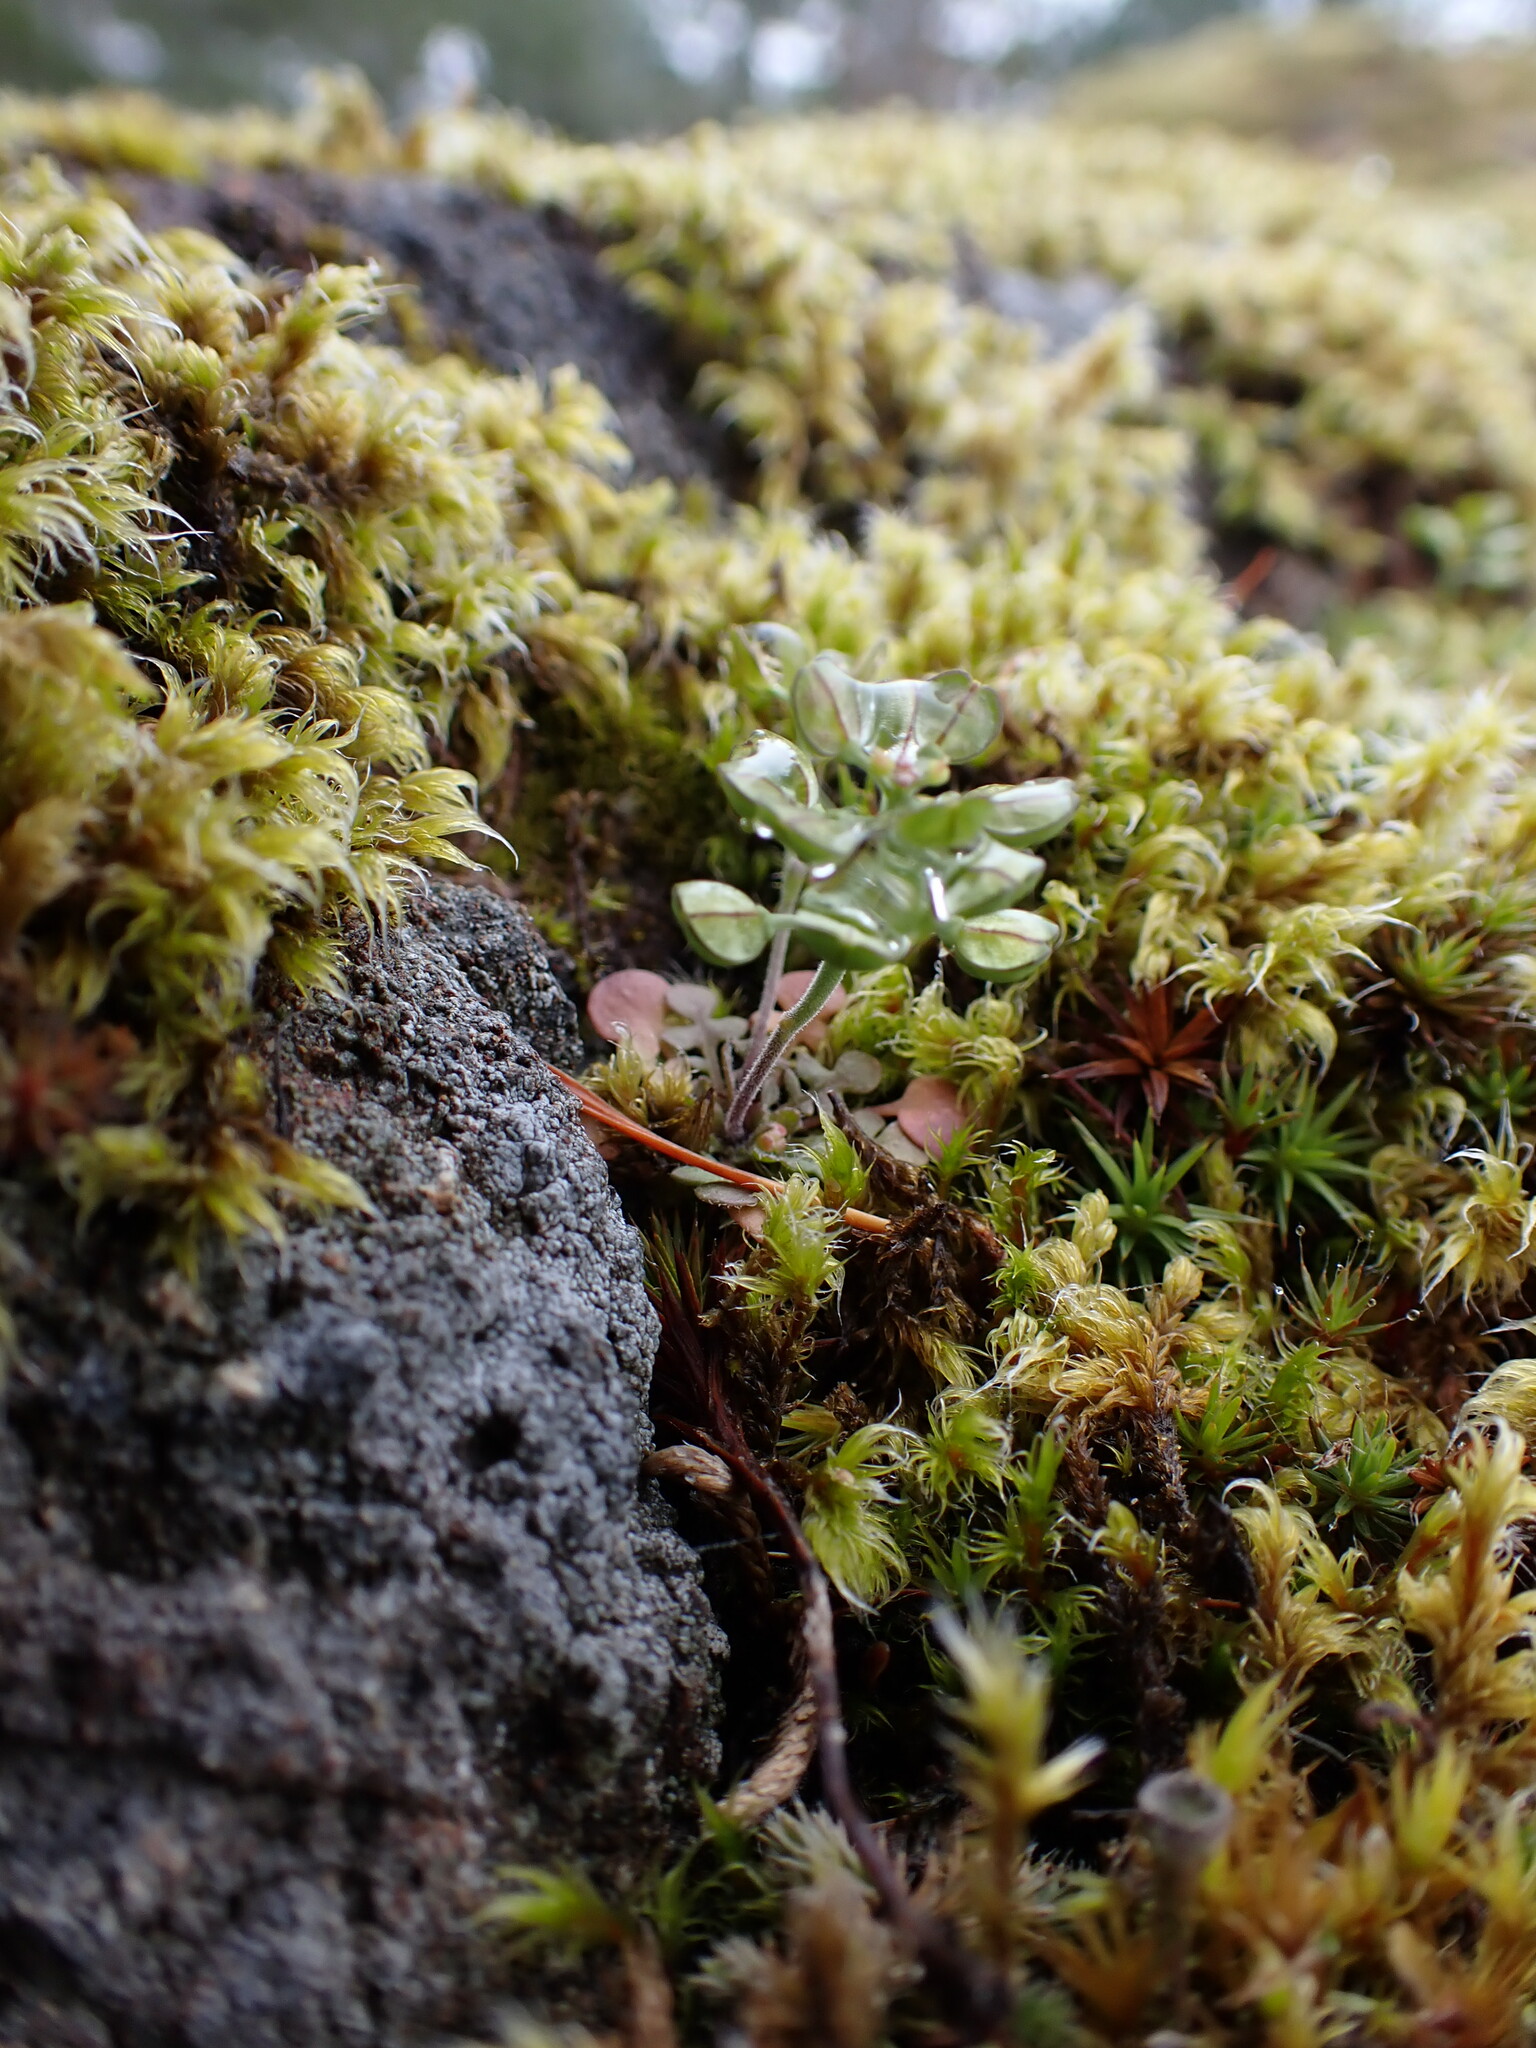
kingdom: Plantae
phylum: Tracheophyta
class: Magnoliopsida
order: Brassicales
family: Brassicaceae
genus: Teesdalia
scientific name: Teesdalia nudicaulis
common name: Shepherd's cress
